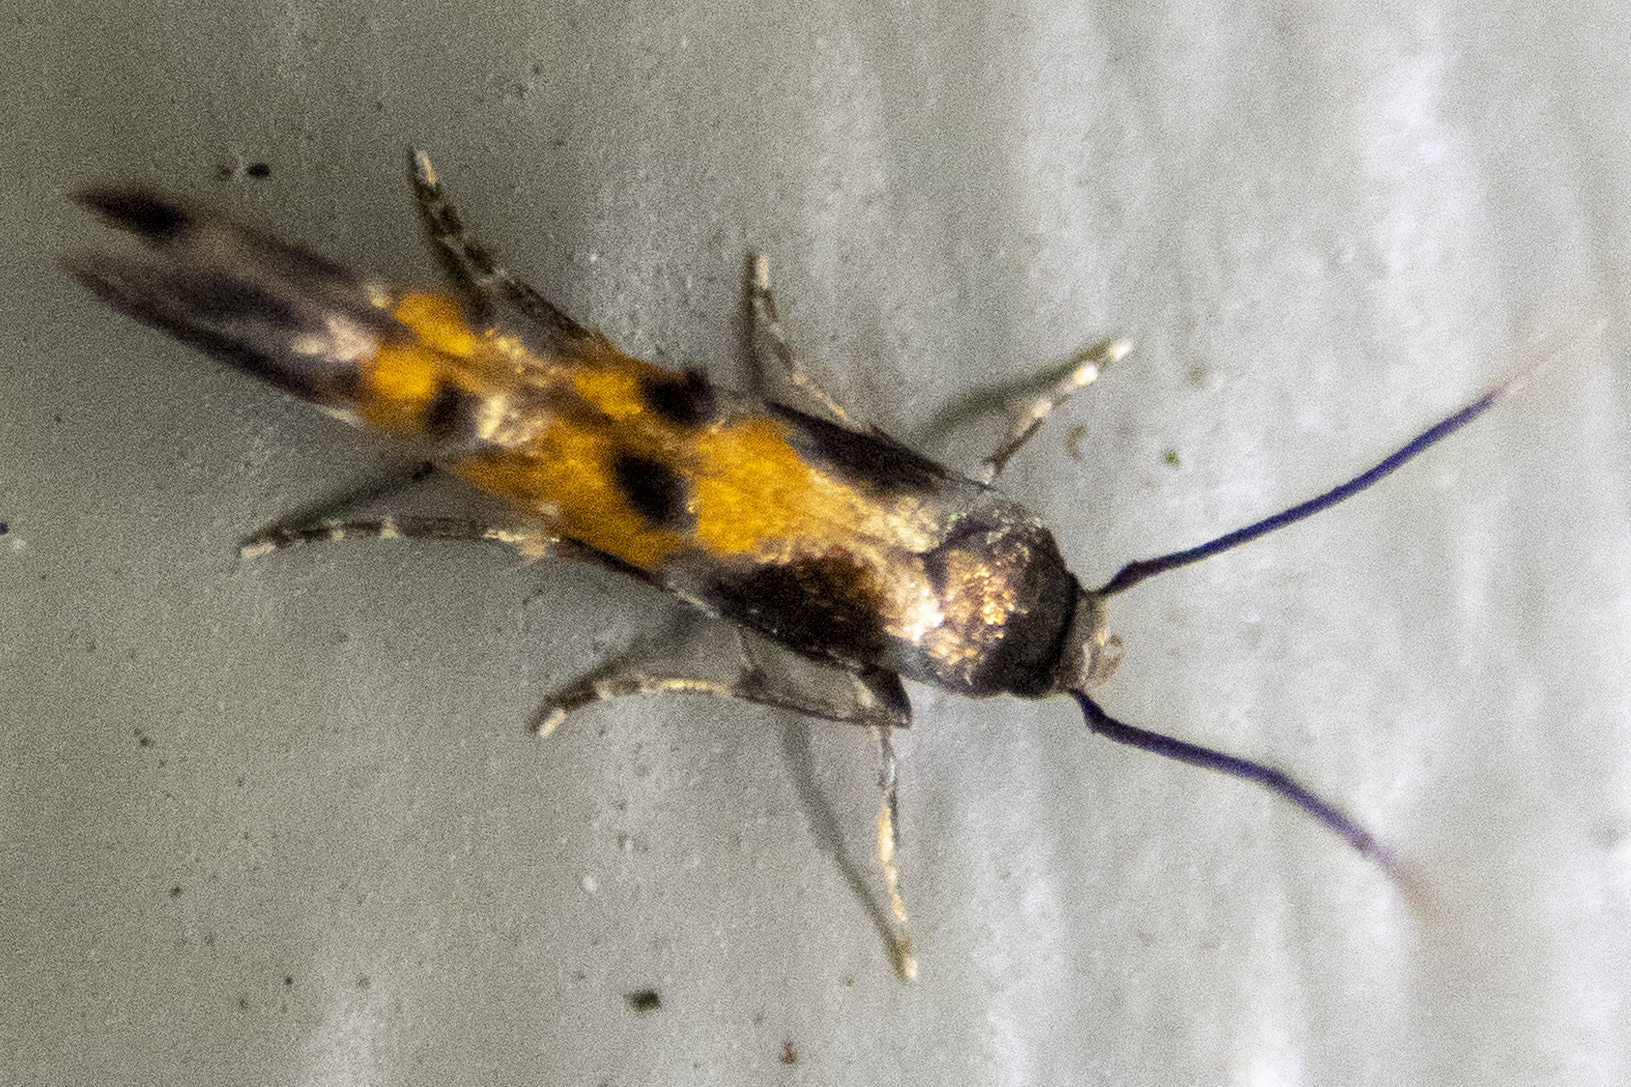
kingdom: Animalia
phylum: Arthropoda
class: Insecta
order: Lepidoptera
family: Momphidae
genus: Mompha
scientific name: Mompha terminella
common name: Enchanters cosmet
